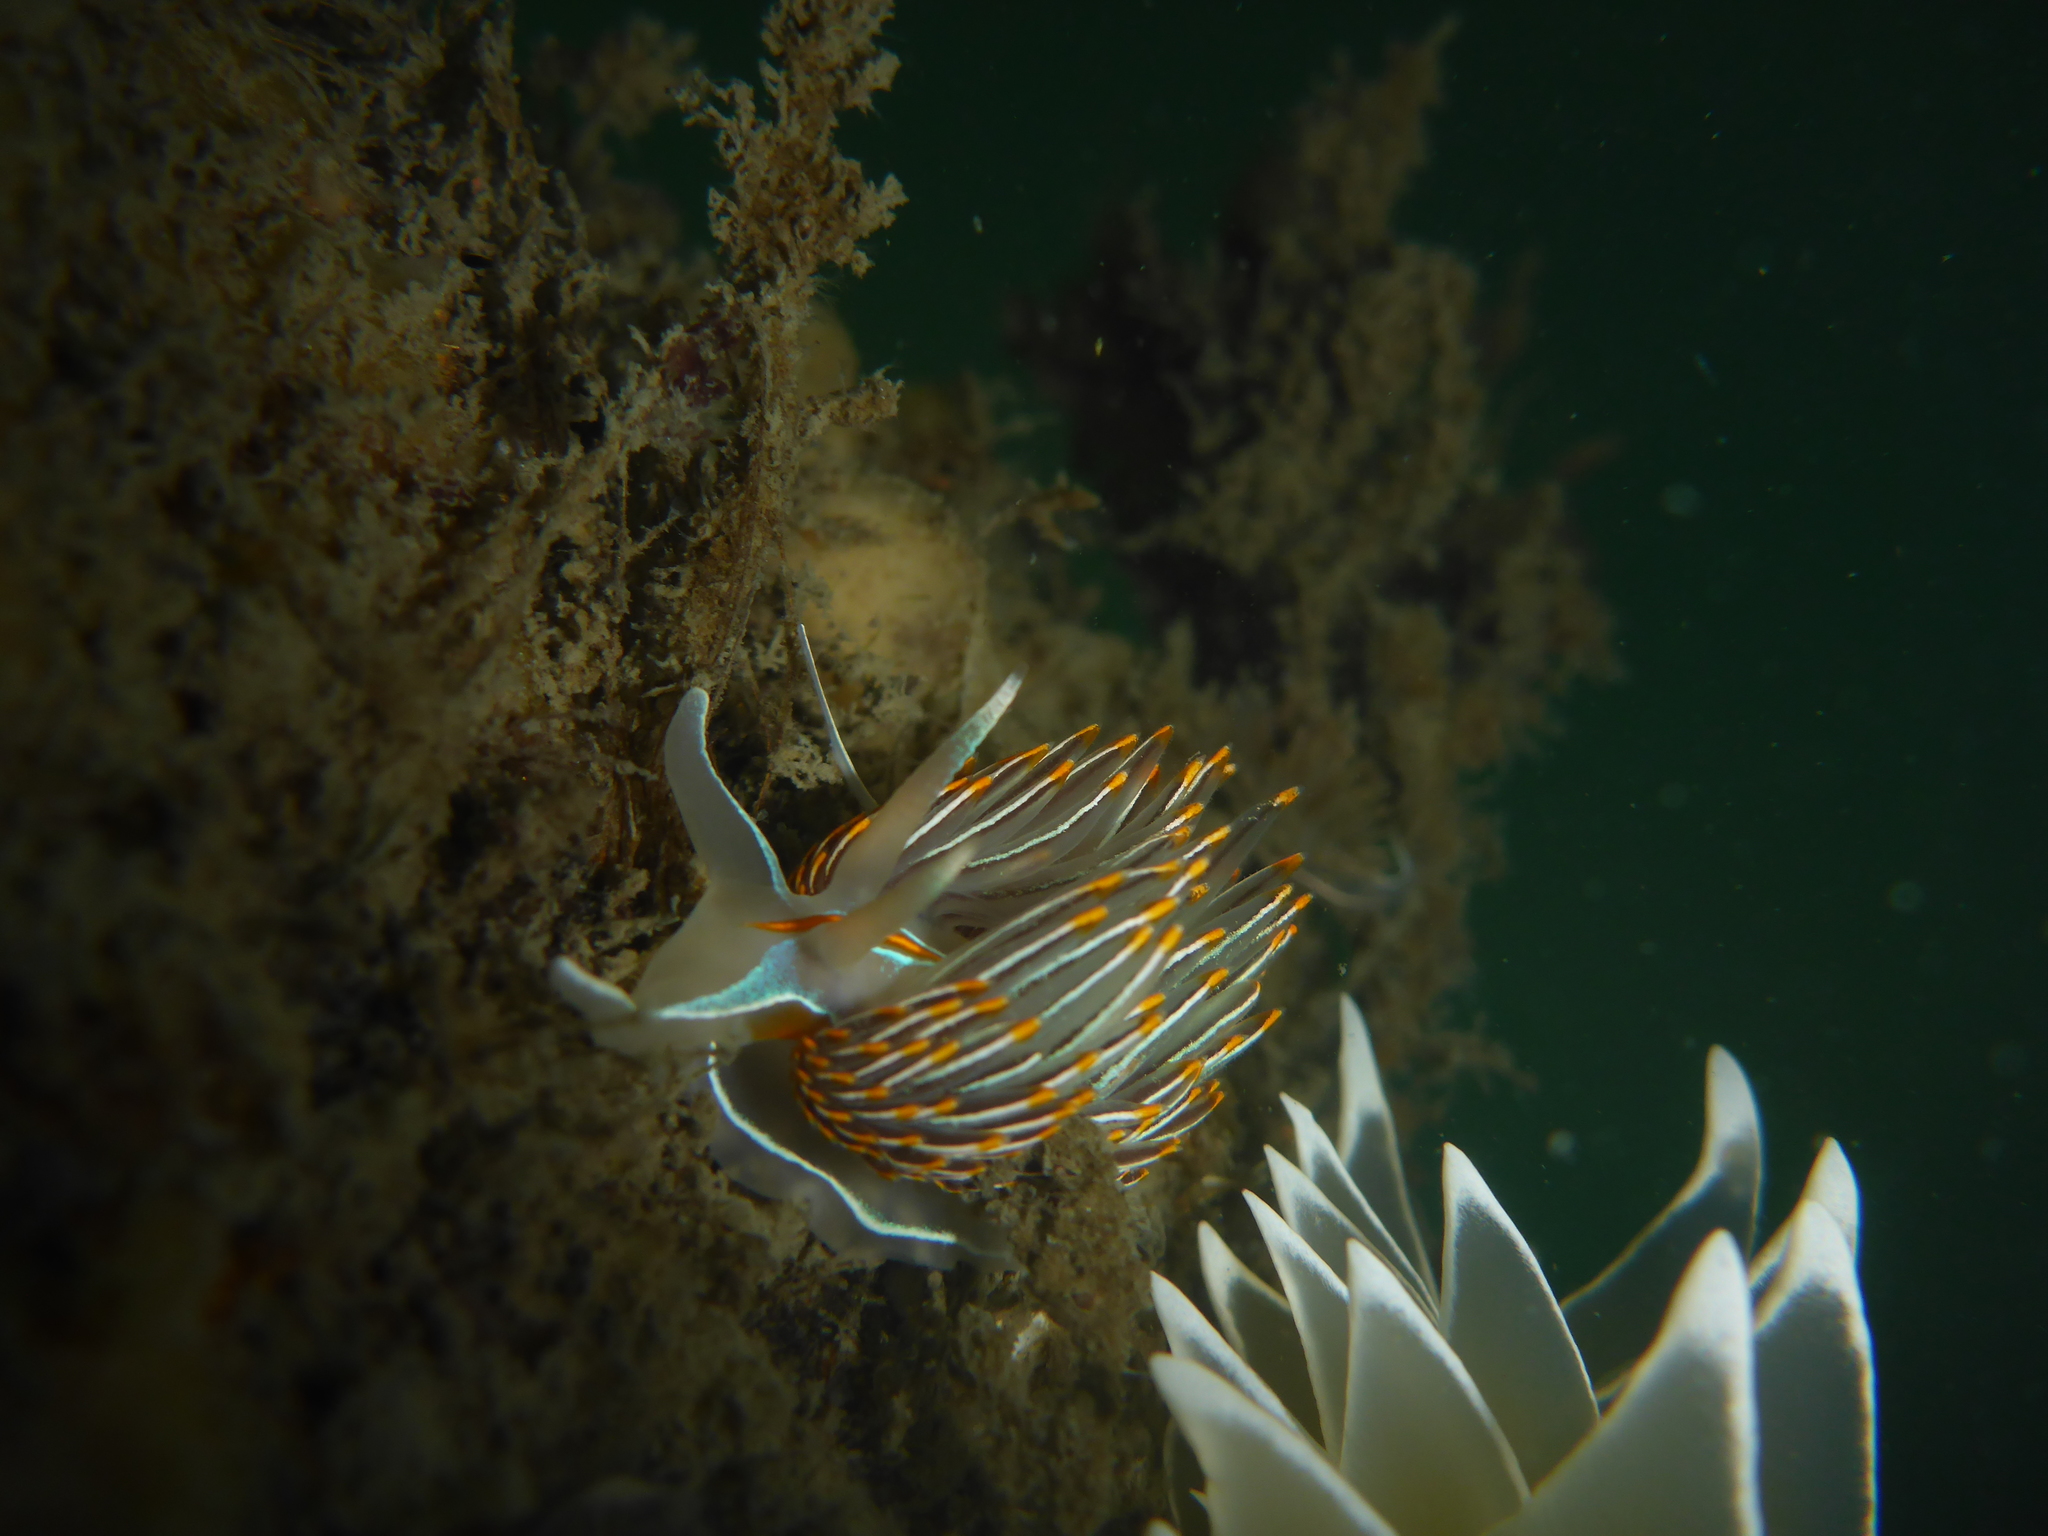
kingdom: Animalia
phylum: Mollusca
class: Gastropoda
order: Nudibranchia
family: Myrrhinidae
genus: Hermissenda
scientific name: Hermissenda crassicornis
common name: Hermissenda
